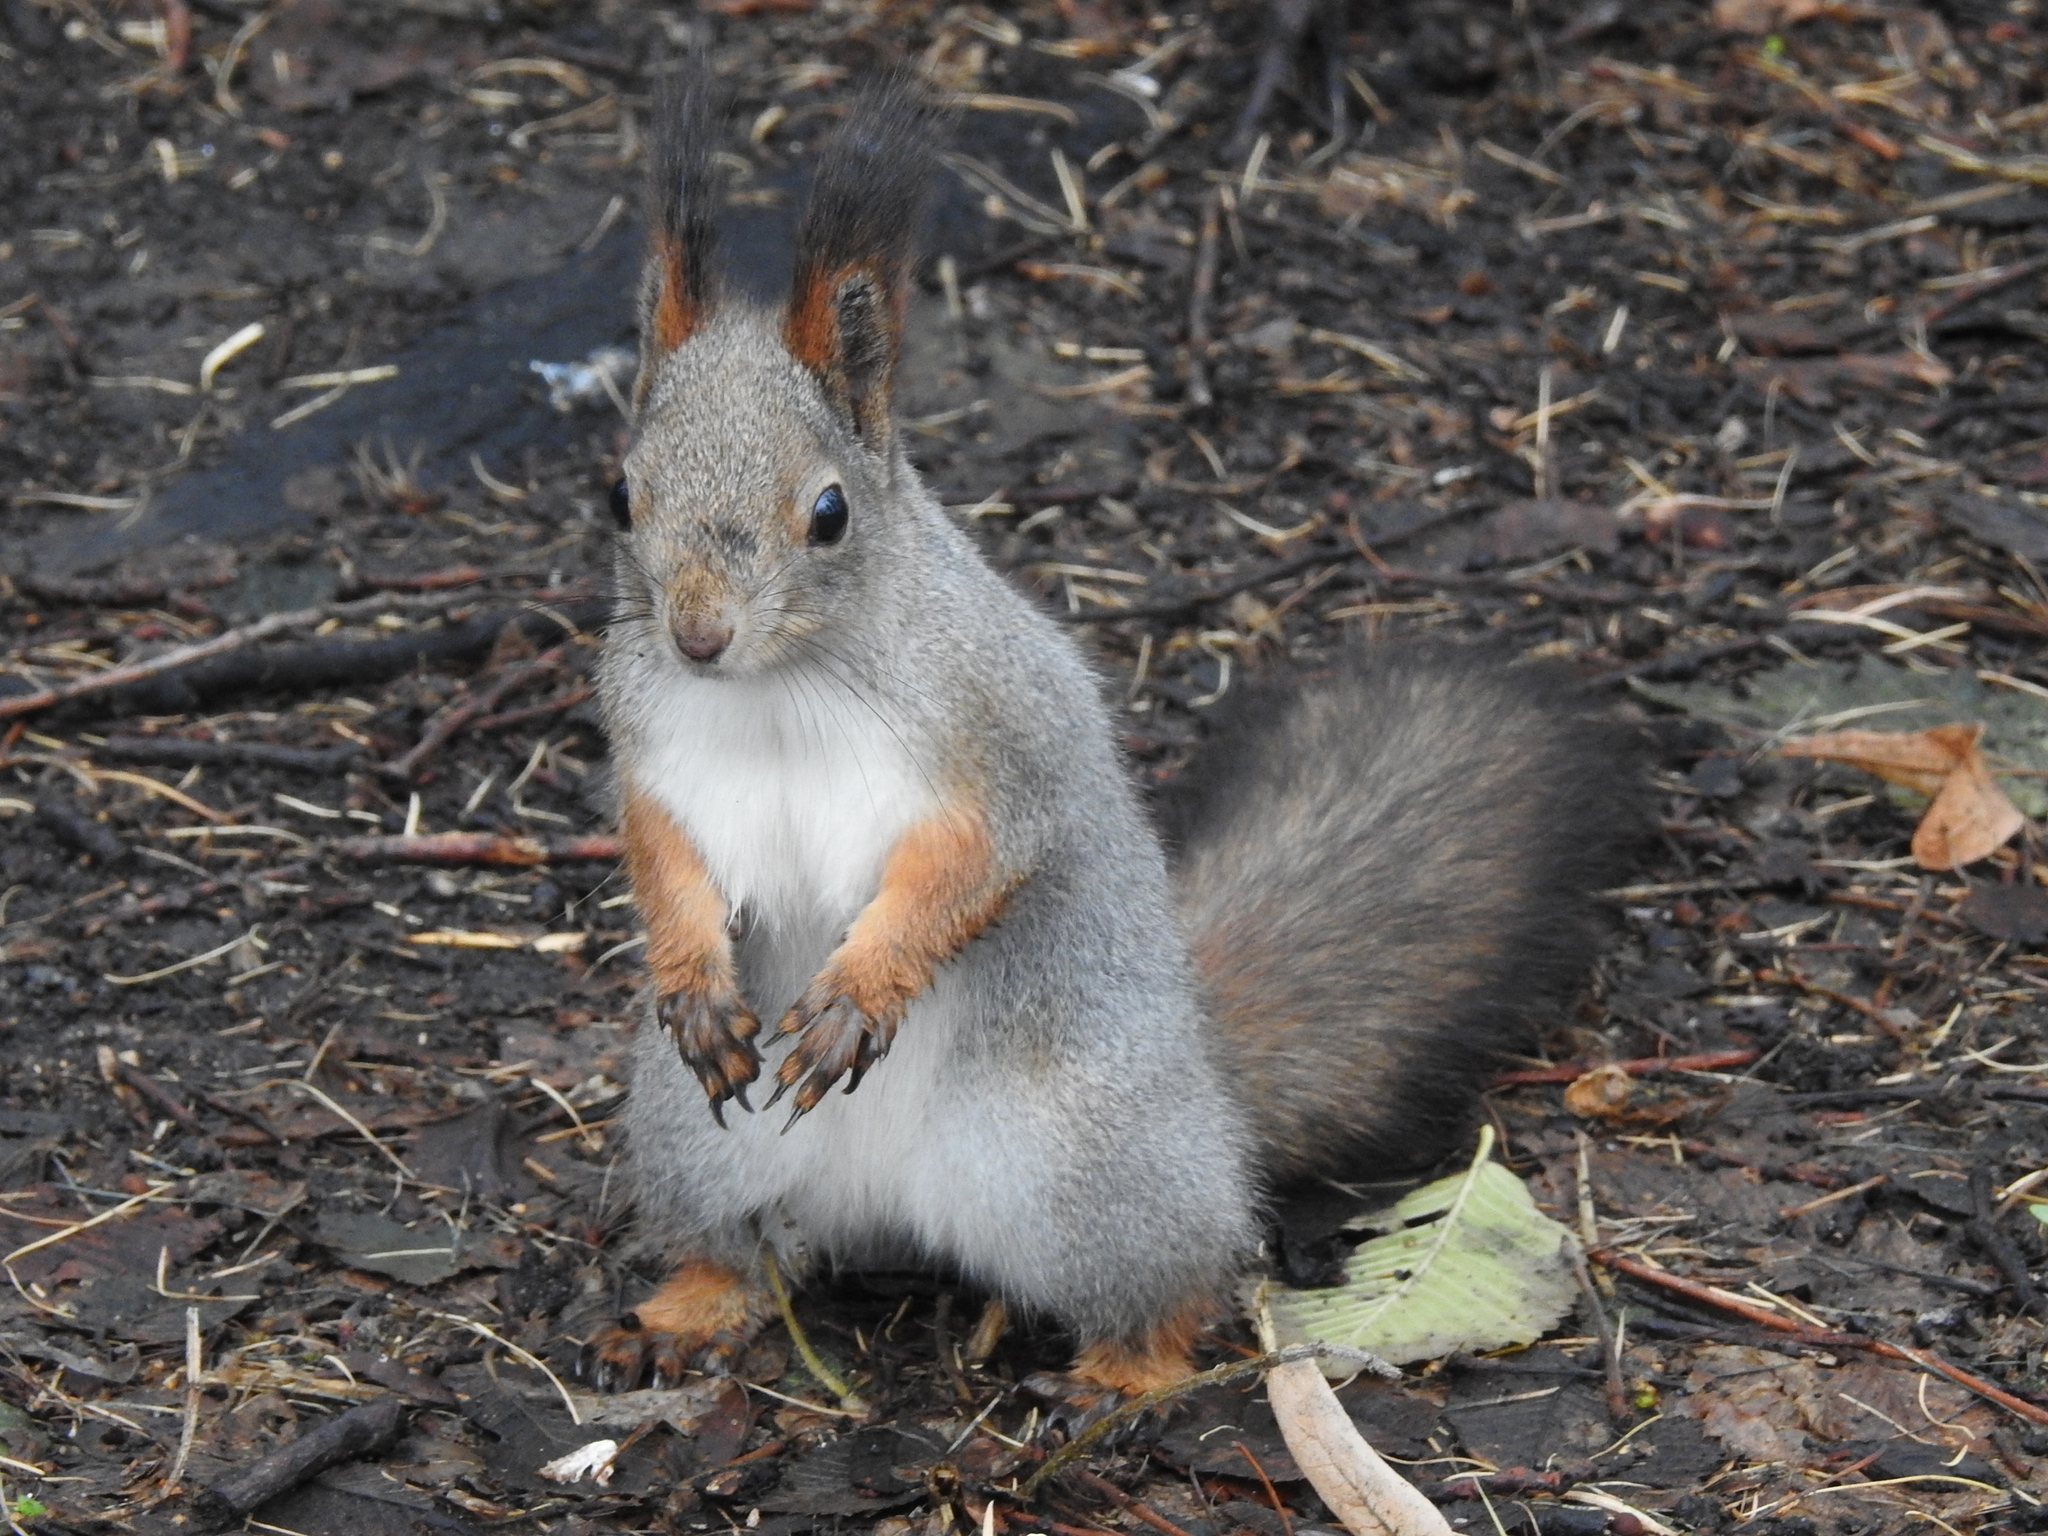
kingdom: Animalia
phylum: Chordata
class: Mammalia
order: Rodentia
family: Sciuridae
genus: Sciurus
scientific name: Sciurus vulgaris
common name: Eurasian red squirrel
